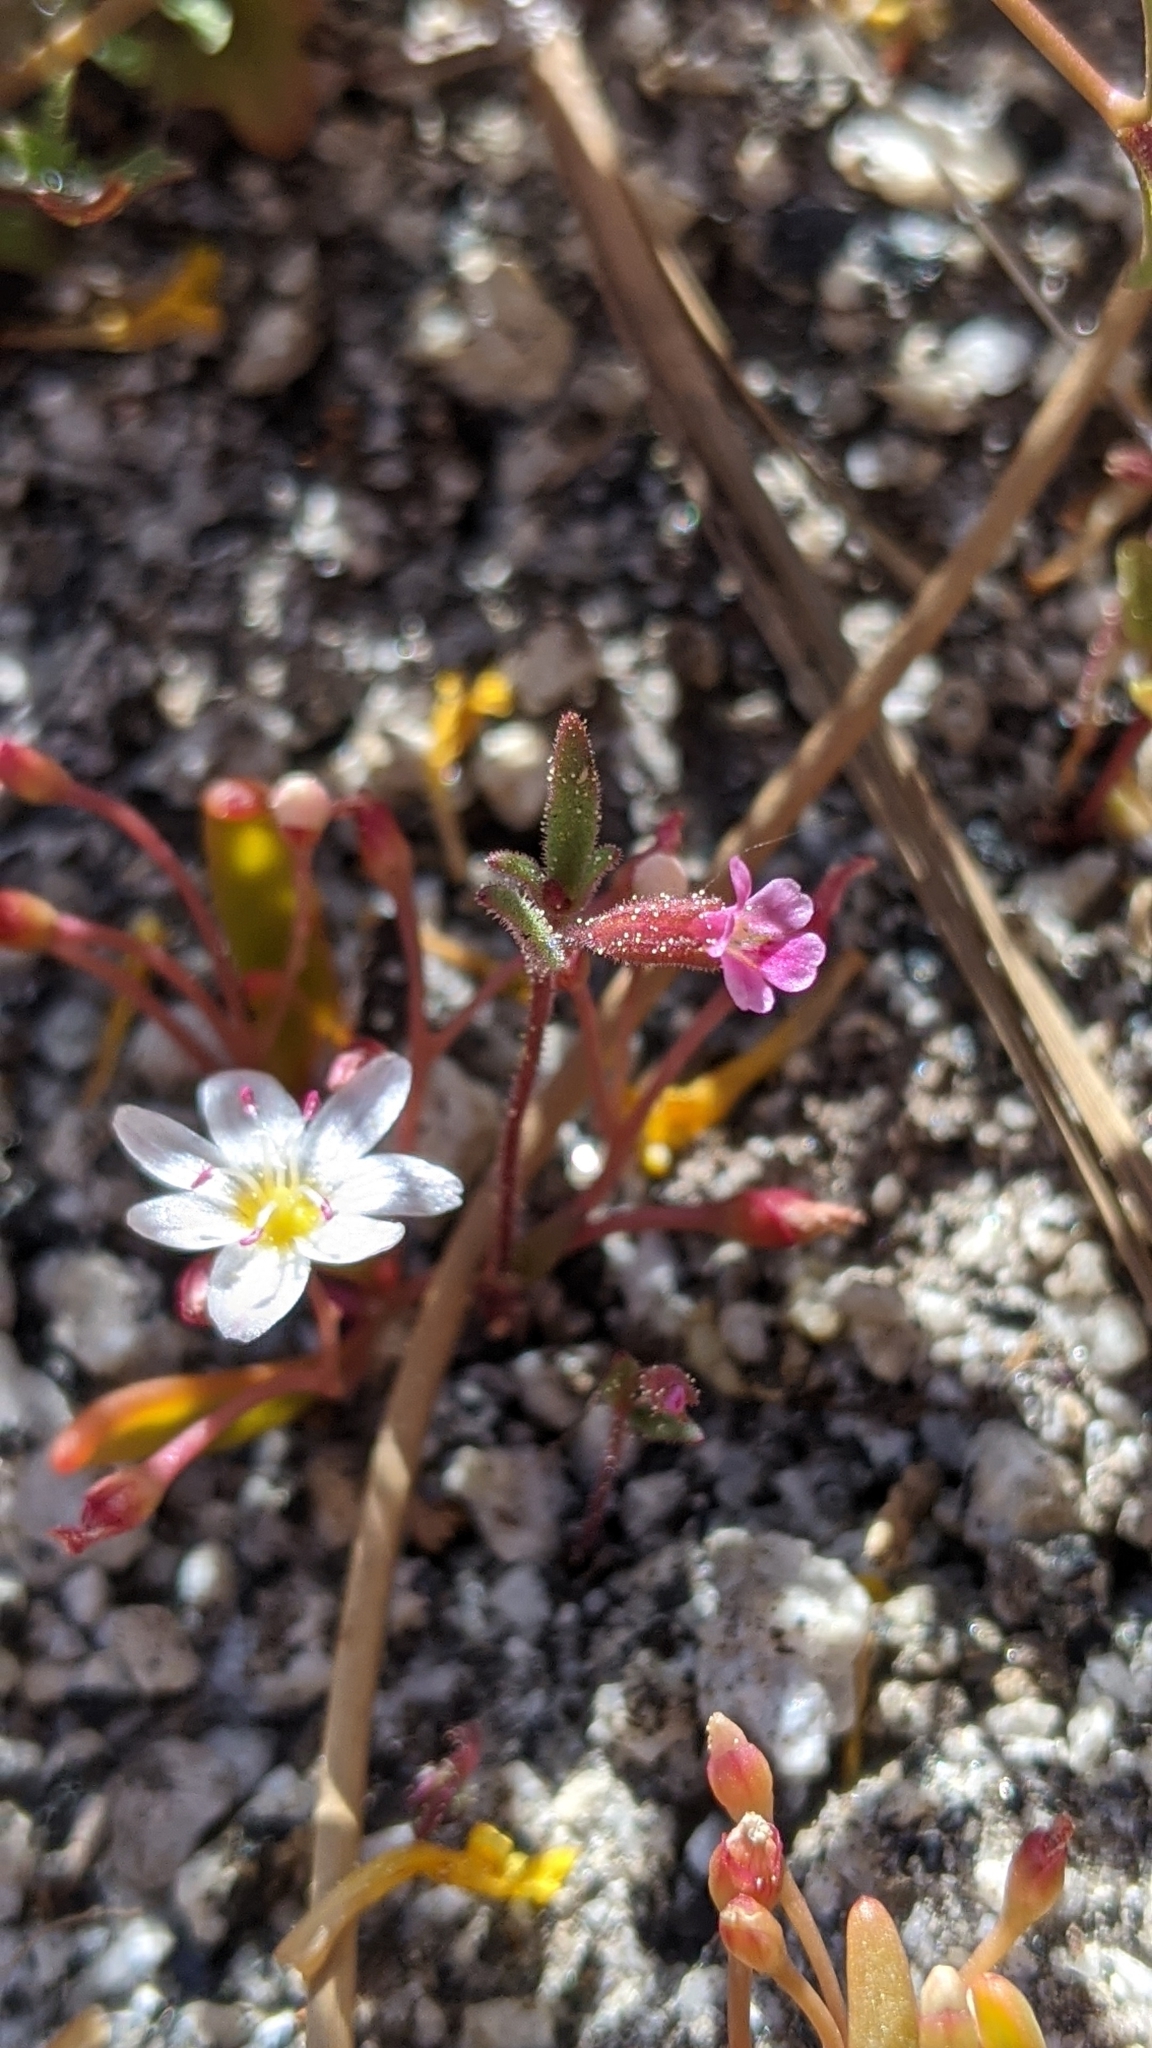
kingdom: Plantae
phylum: Tracheophyta
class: Magnoliopsida
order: Lamiales
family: Phrymaceae
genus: Erythranthe
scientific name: Erythranthe breweri
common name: Brewer's monkeyflower
